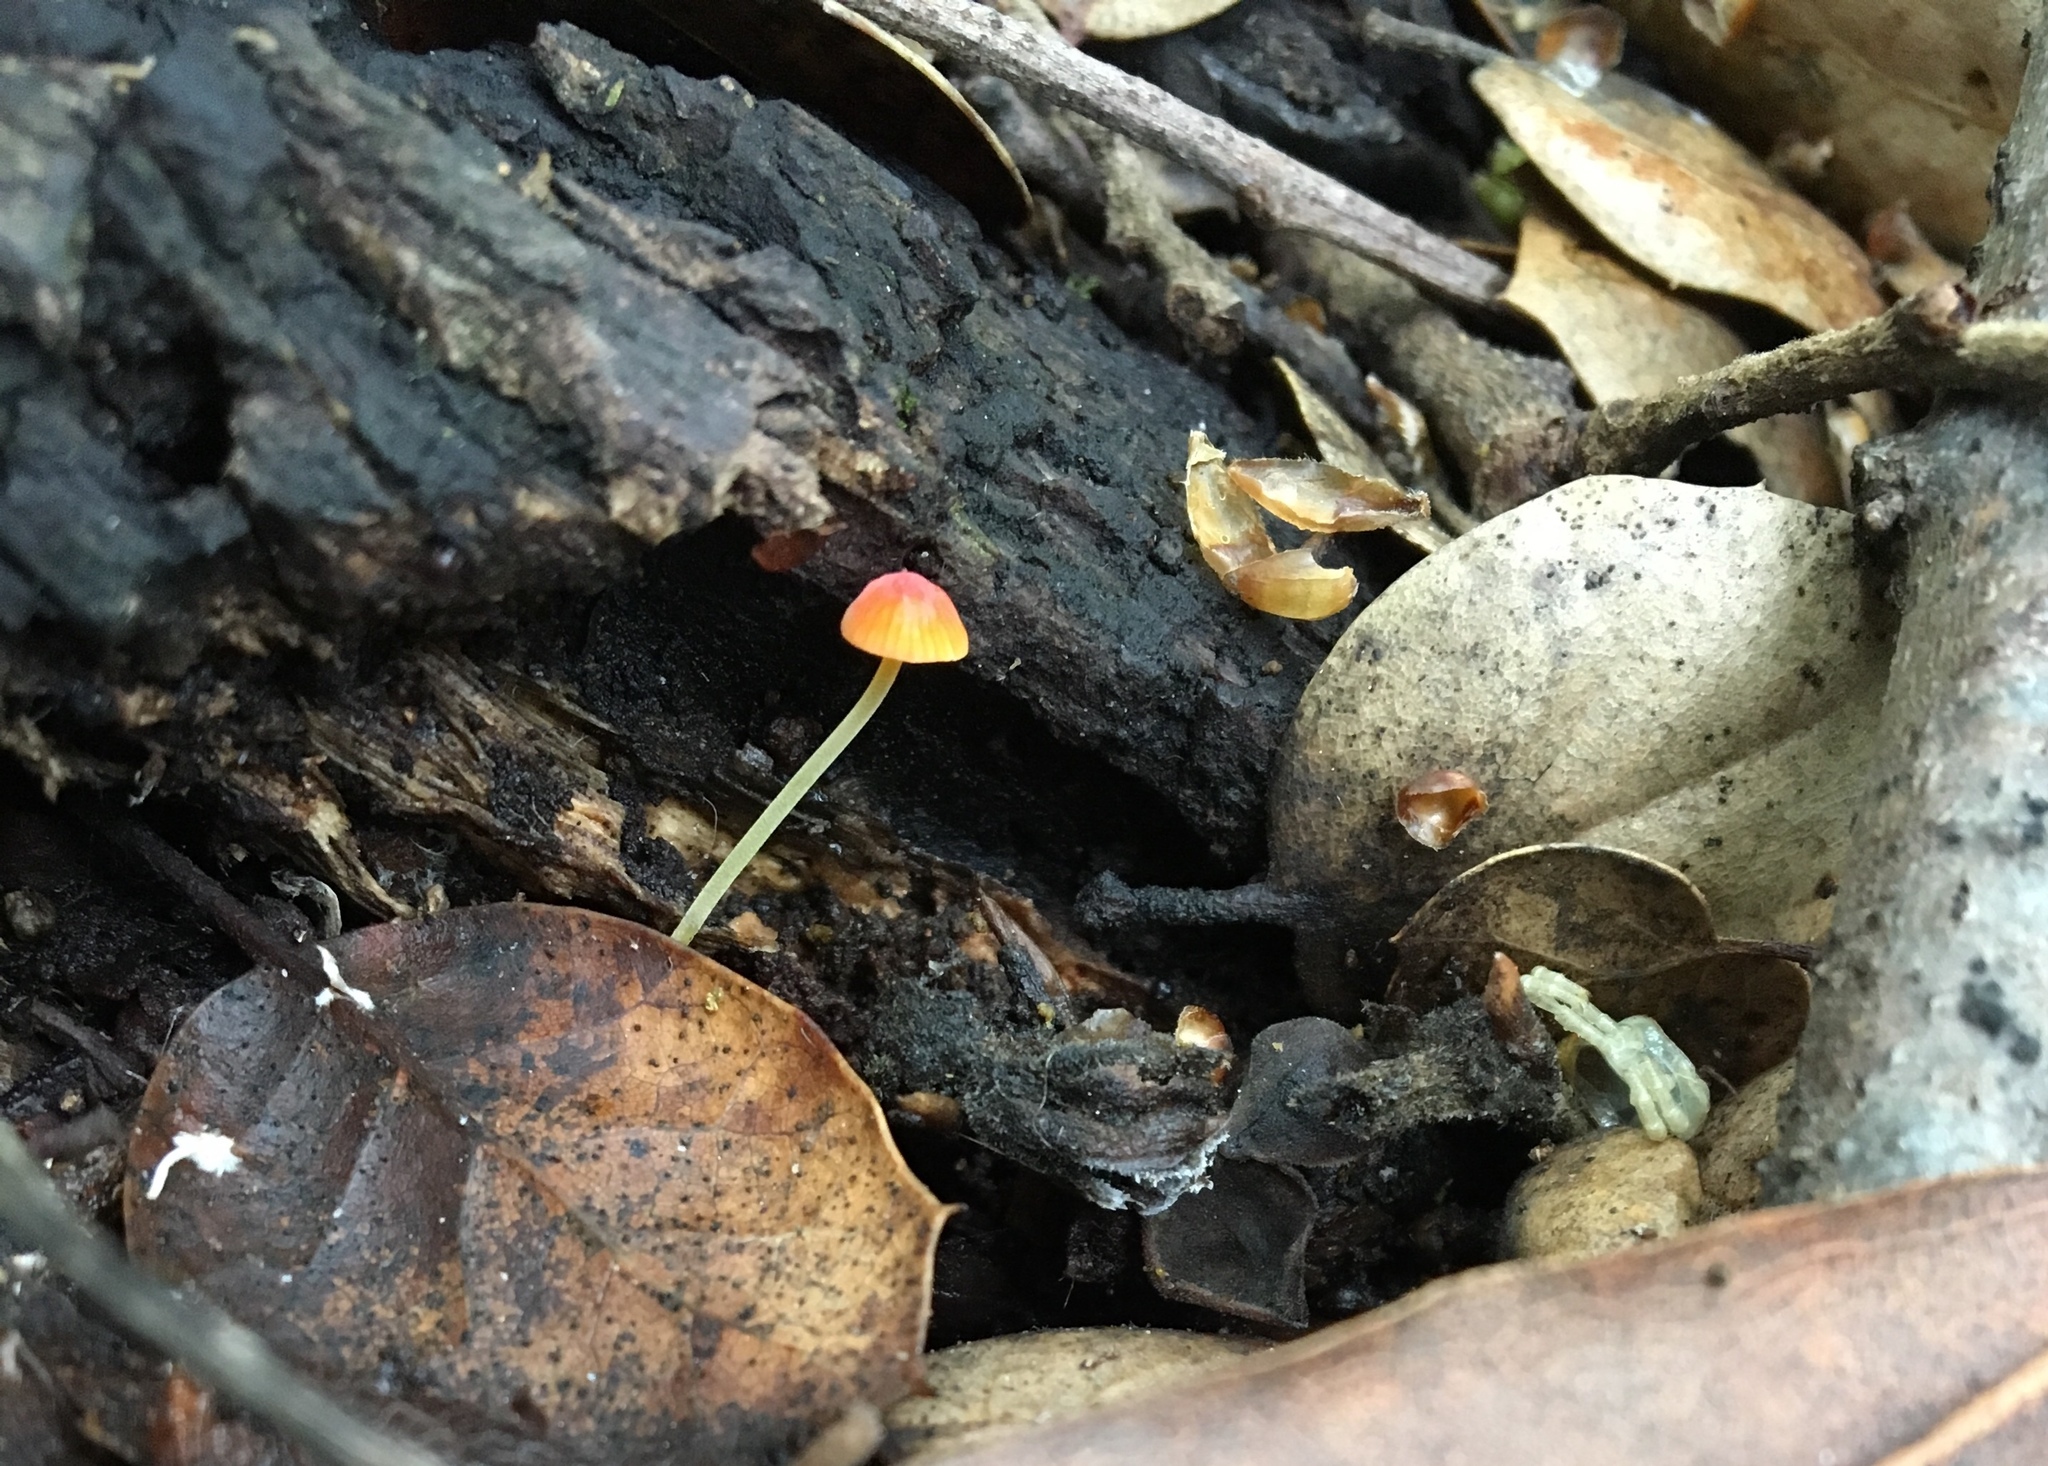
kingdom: Fungi
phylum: Basidiomycota
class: Agaricomycetes
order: Agaricales
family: Mycenaceae
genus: Mycena
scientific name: Mycena acicula
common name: Orange bonnet
